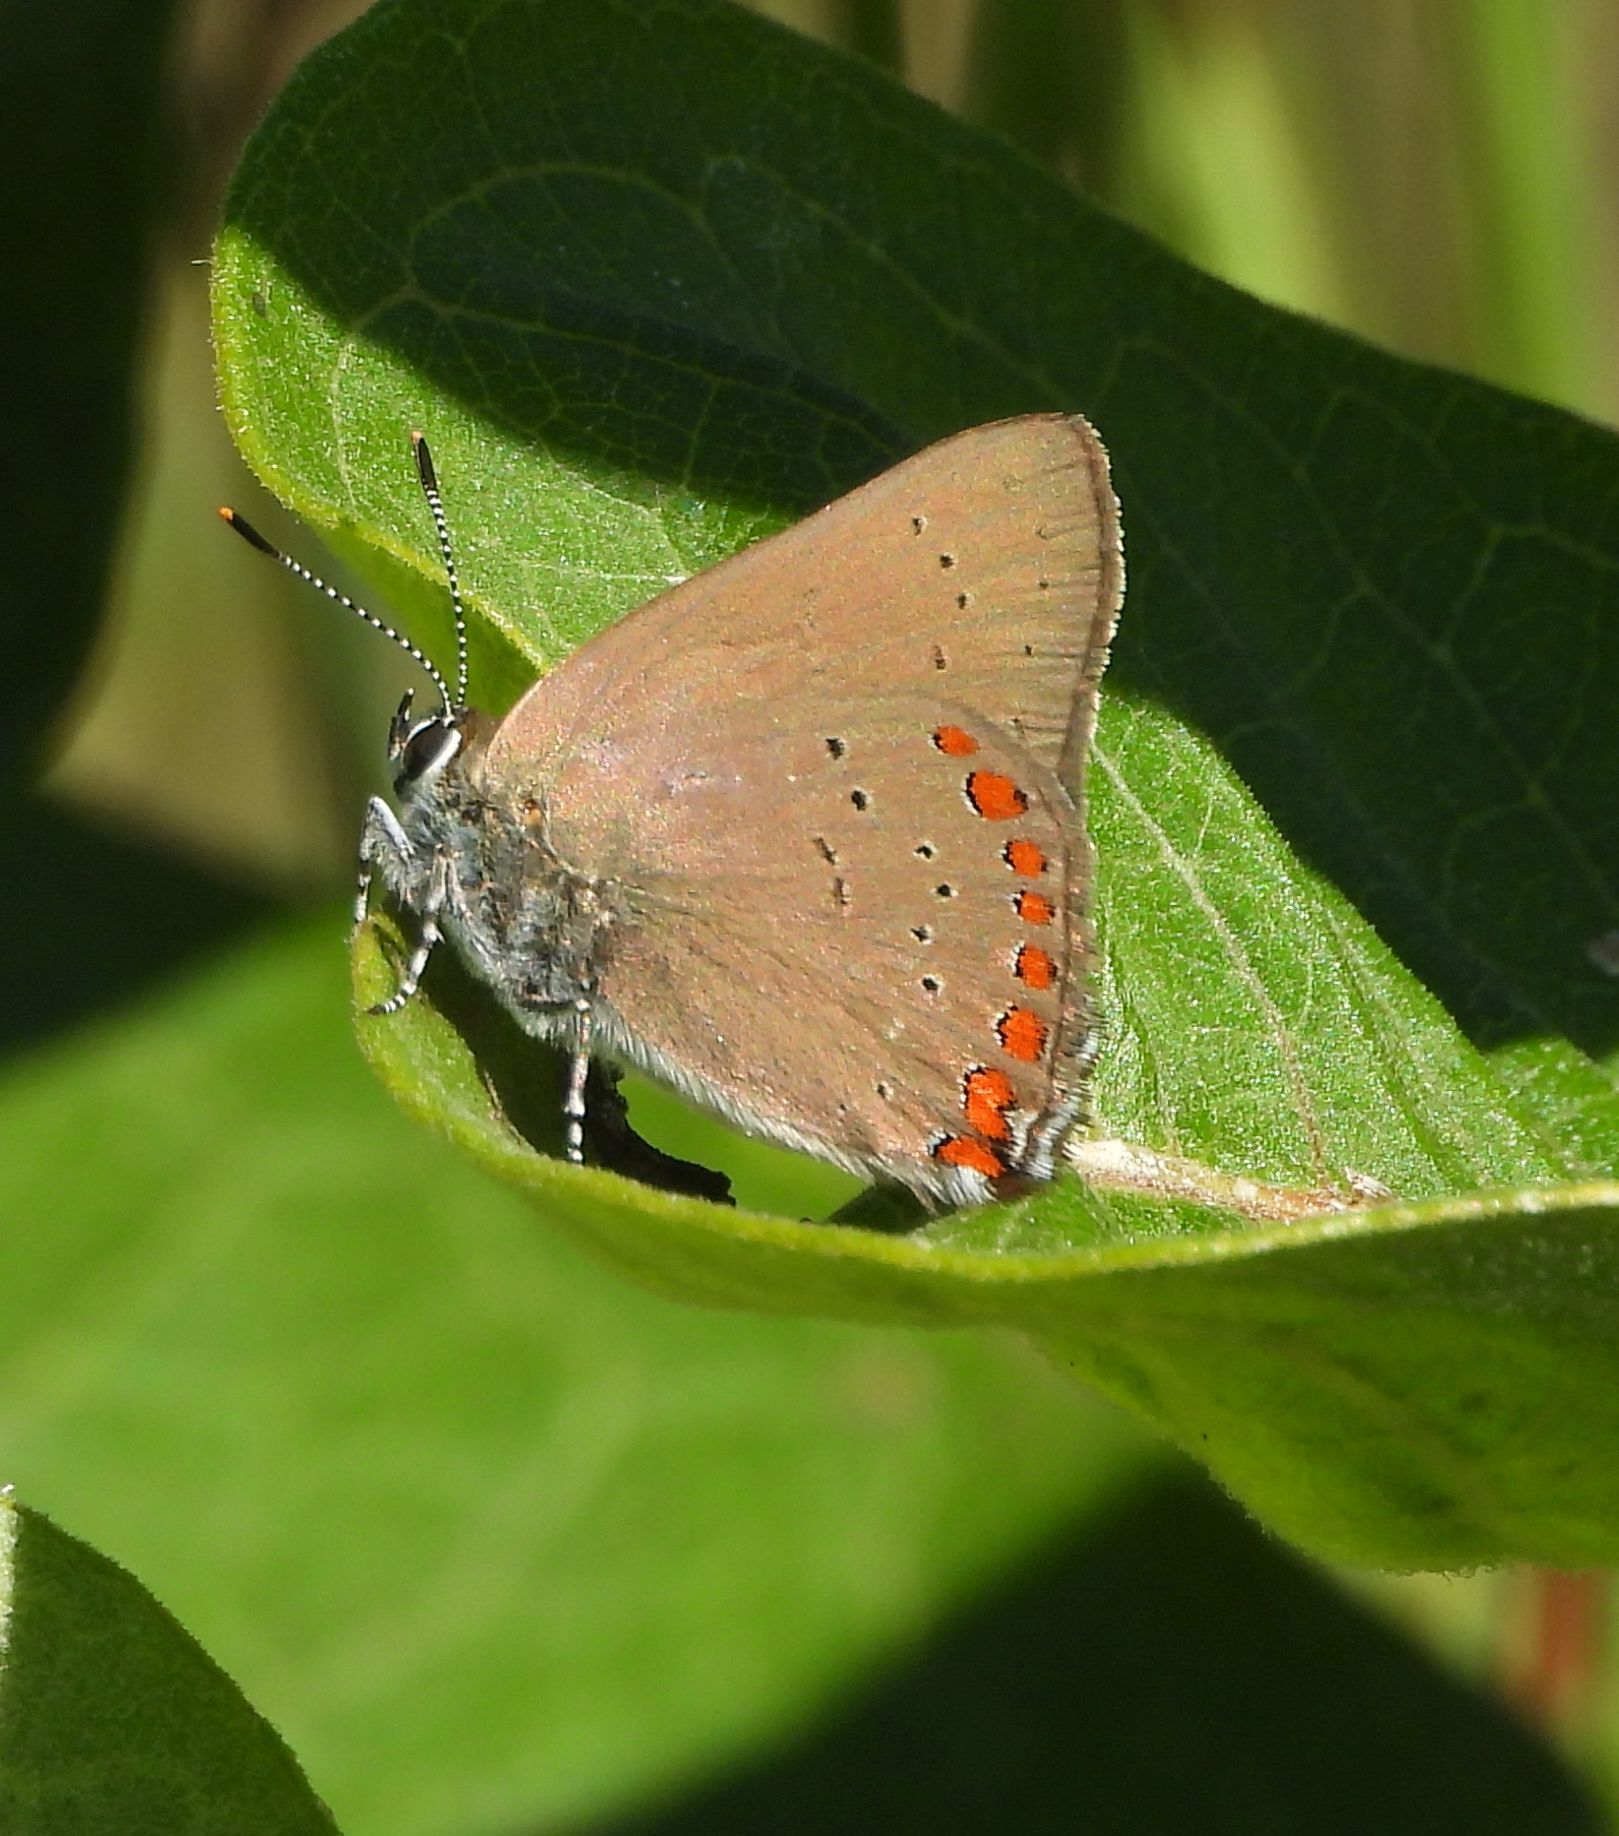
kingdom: Animalia
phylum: Arthropoda
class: Insecta
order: Lepidoptera
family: Lycaenidae
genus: Harkenclenus
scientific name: Harkenclenus titus
